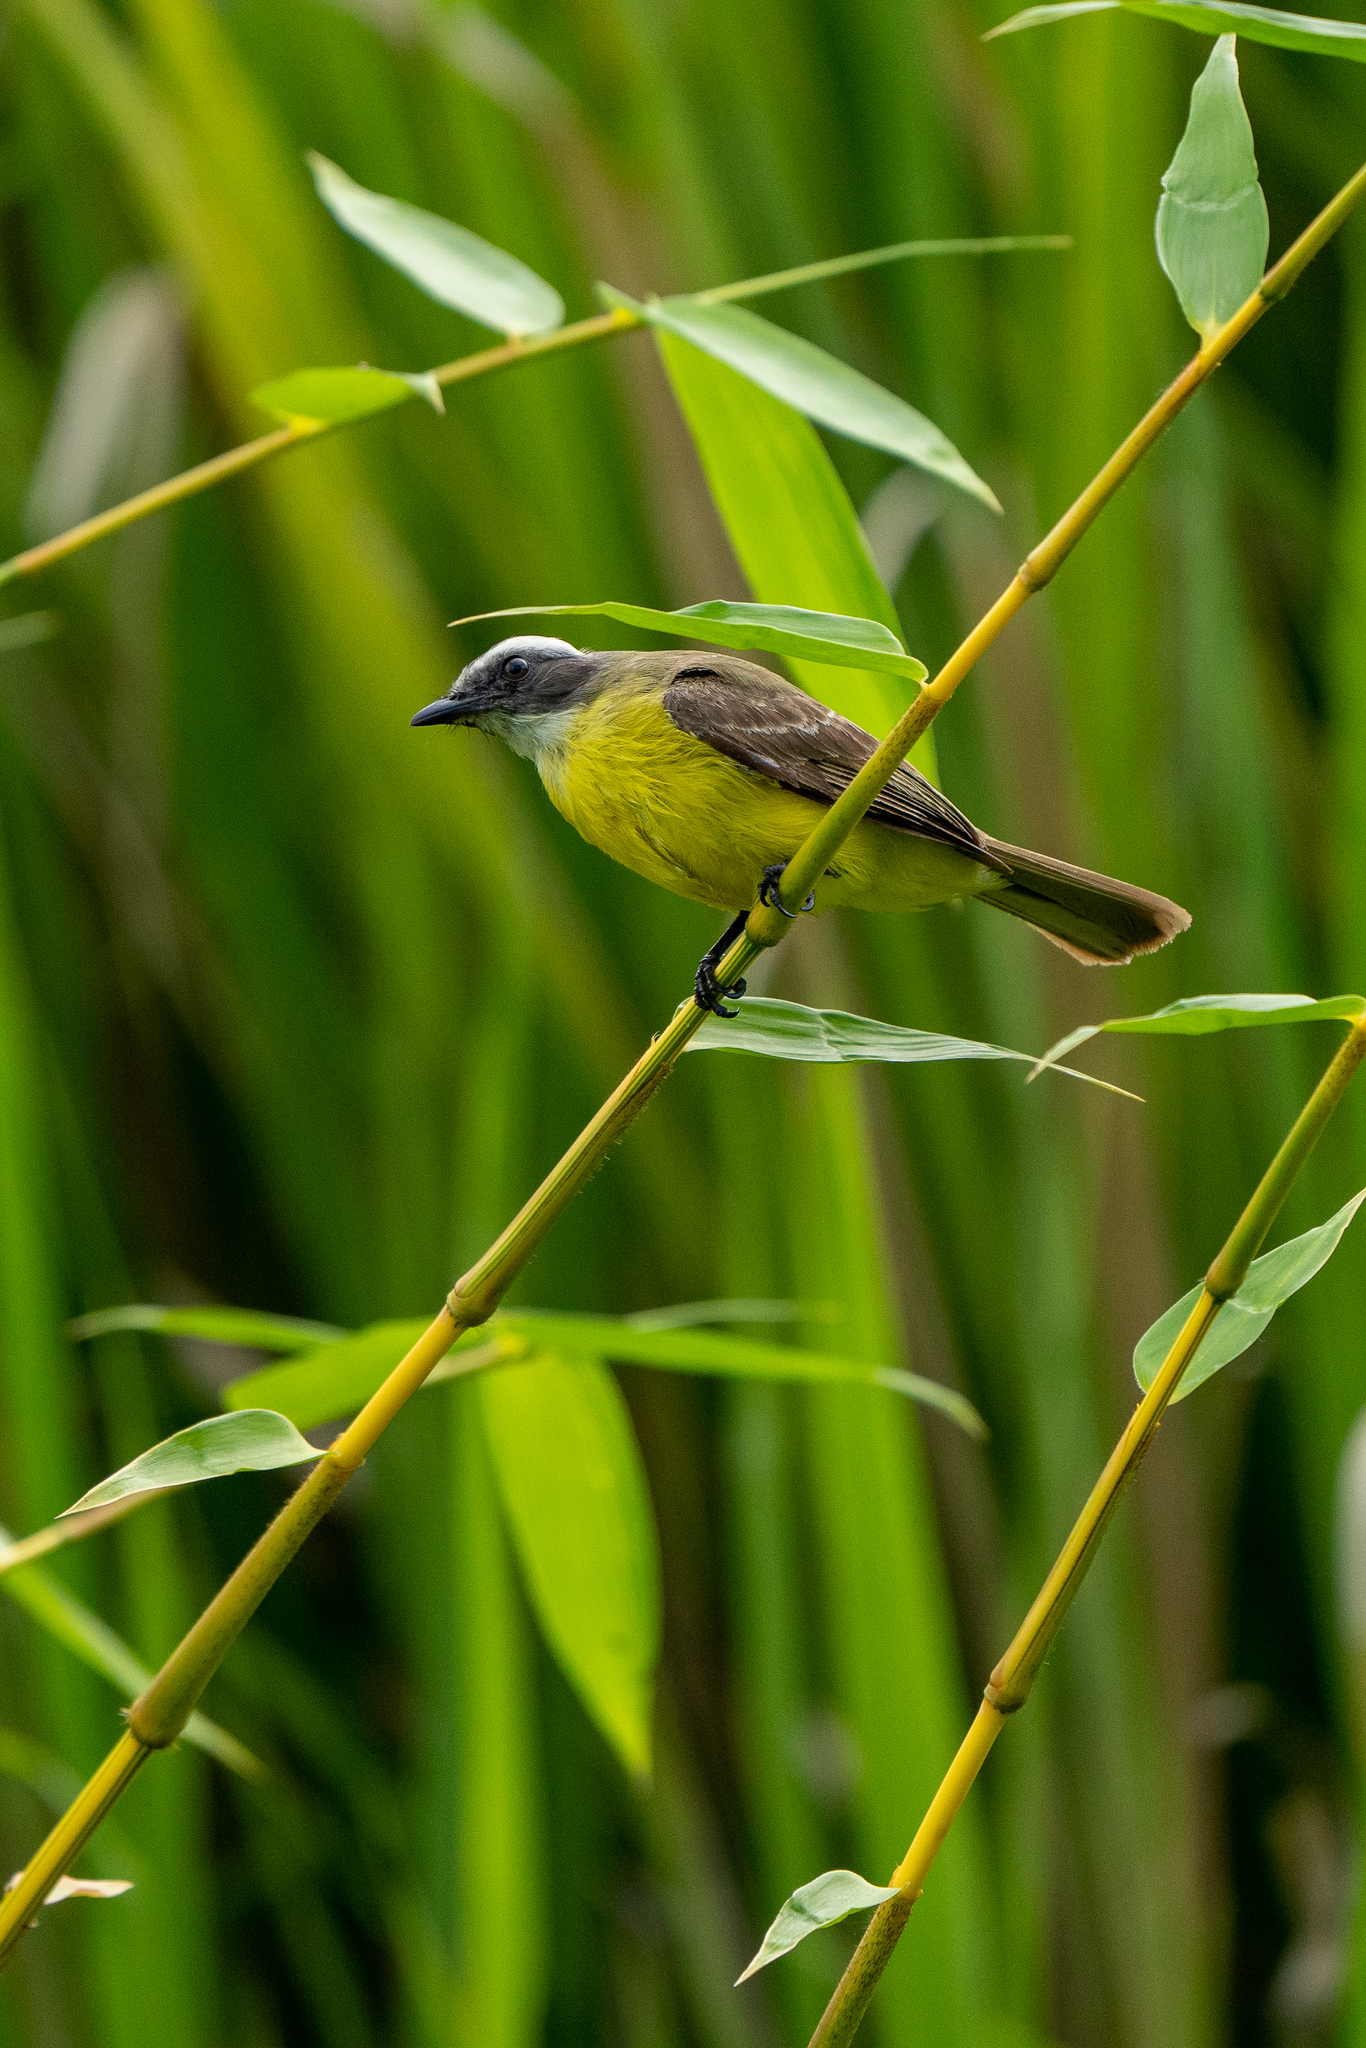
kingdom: Animalia
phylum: Chordata
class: Aves
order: Passeriformes
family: Tyrannidae
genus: Myiozetetes
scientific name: Myiozetetes similis
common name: Social flycatcher
